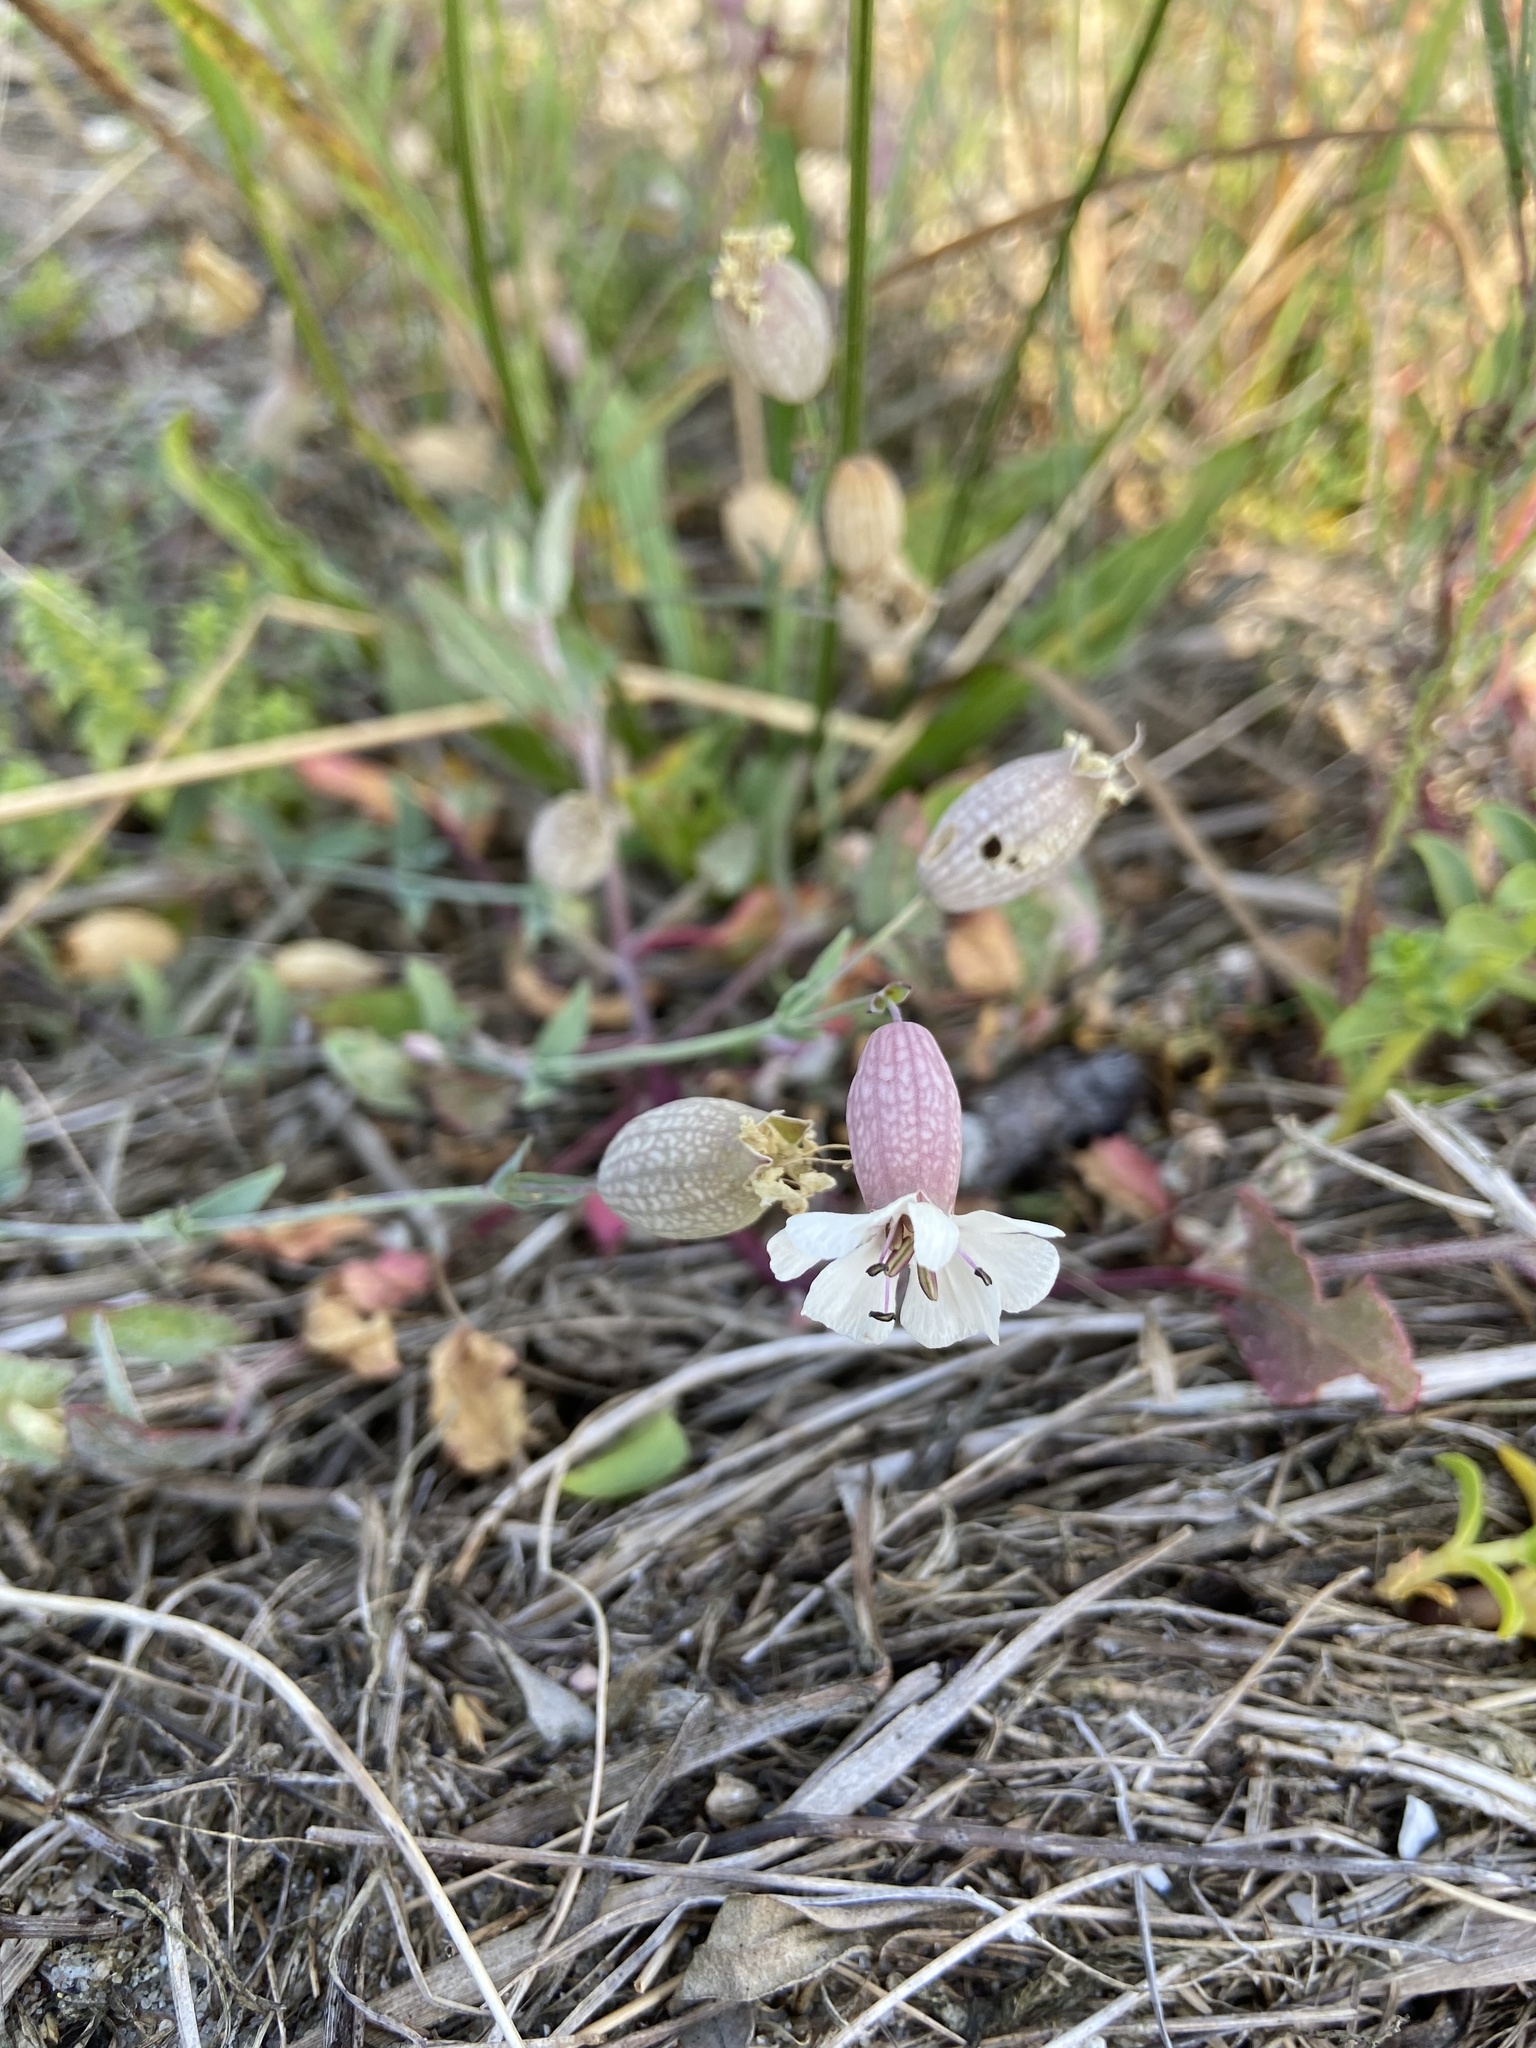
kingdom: Plantae
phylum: Tracheophyta
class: Magnoliopsida
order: Caryophyllales
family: Caryophyllaceae
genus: Silene
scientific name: Silene vulgaris
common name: Bladder campion
